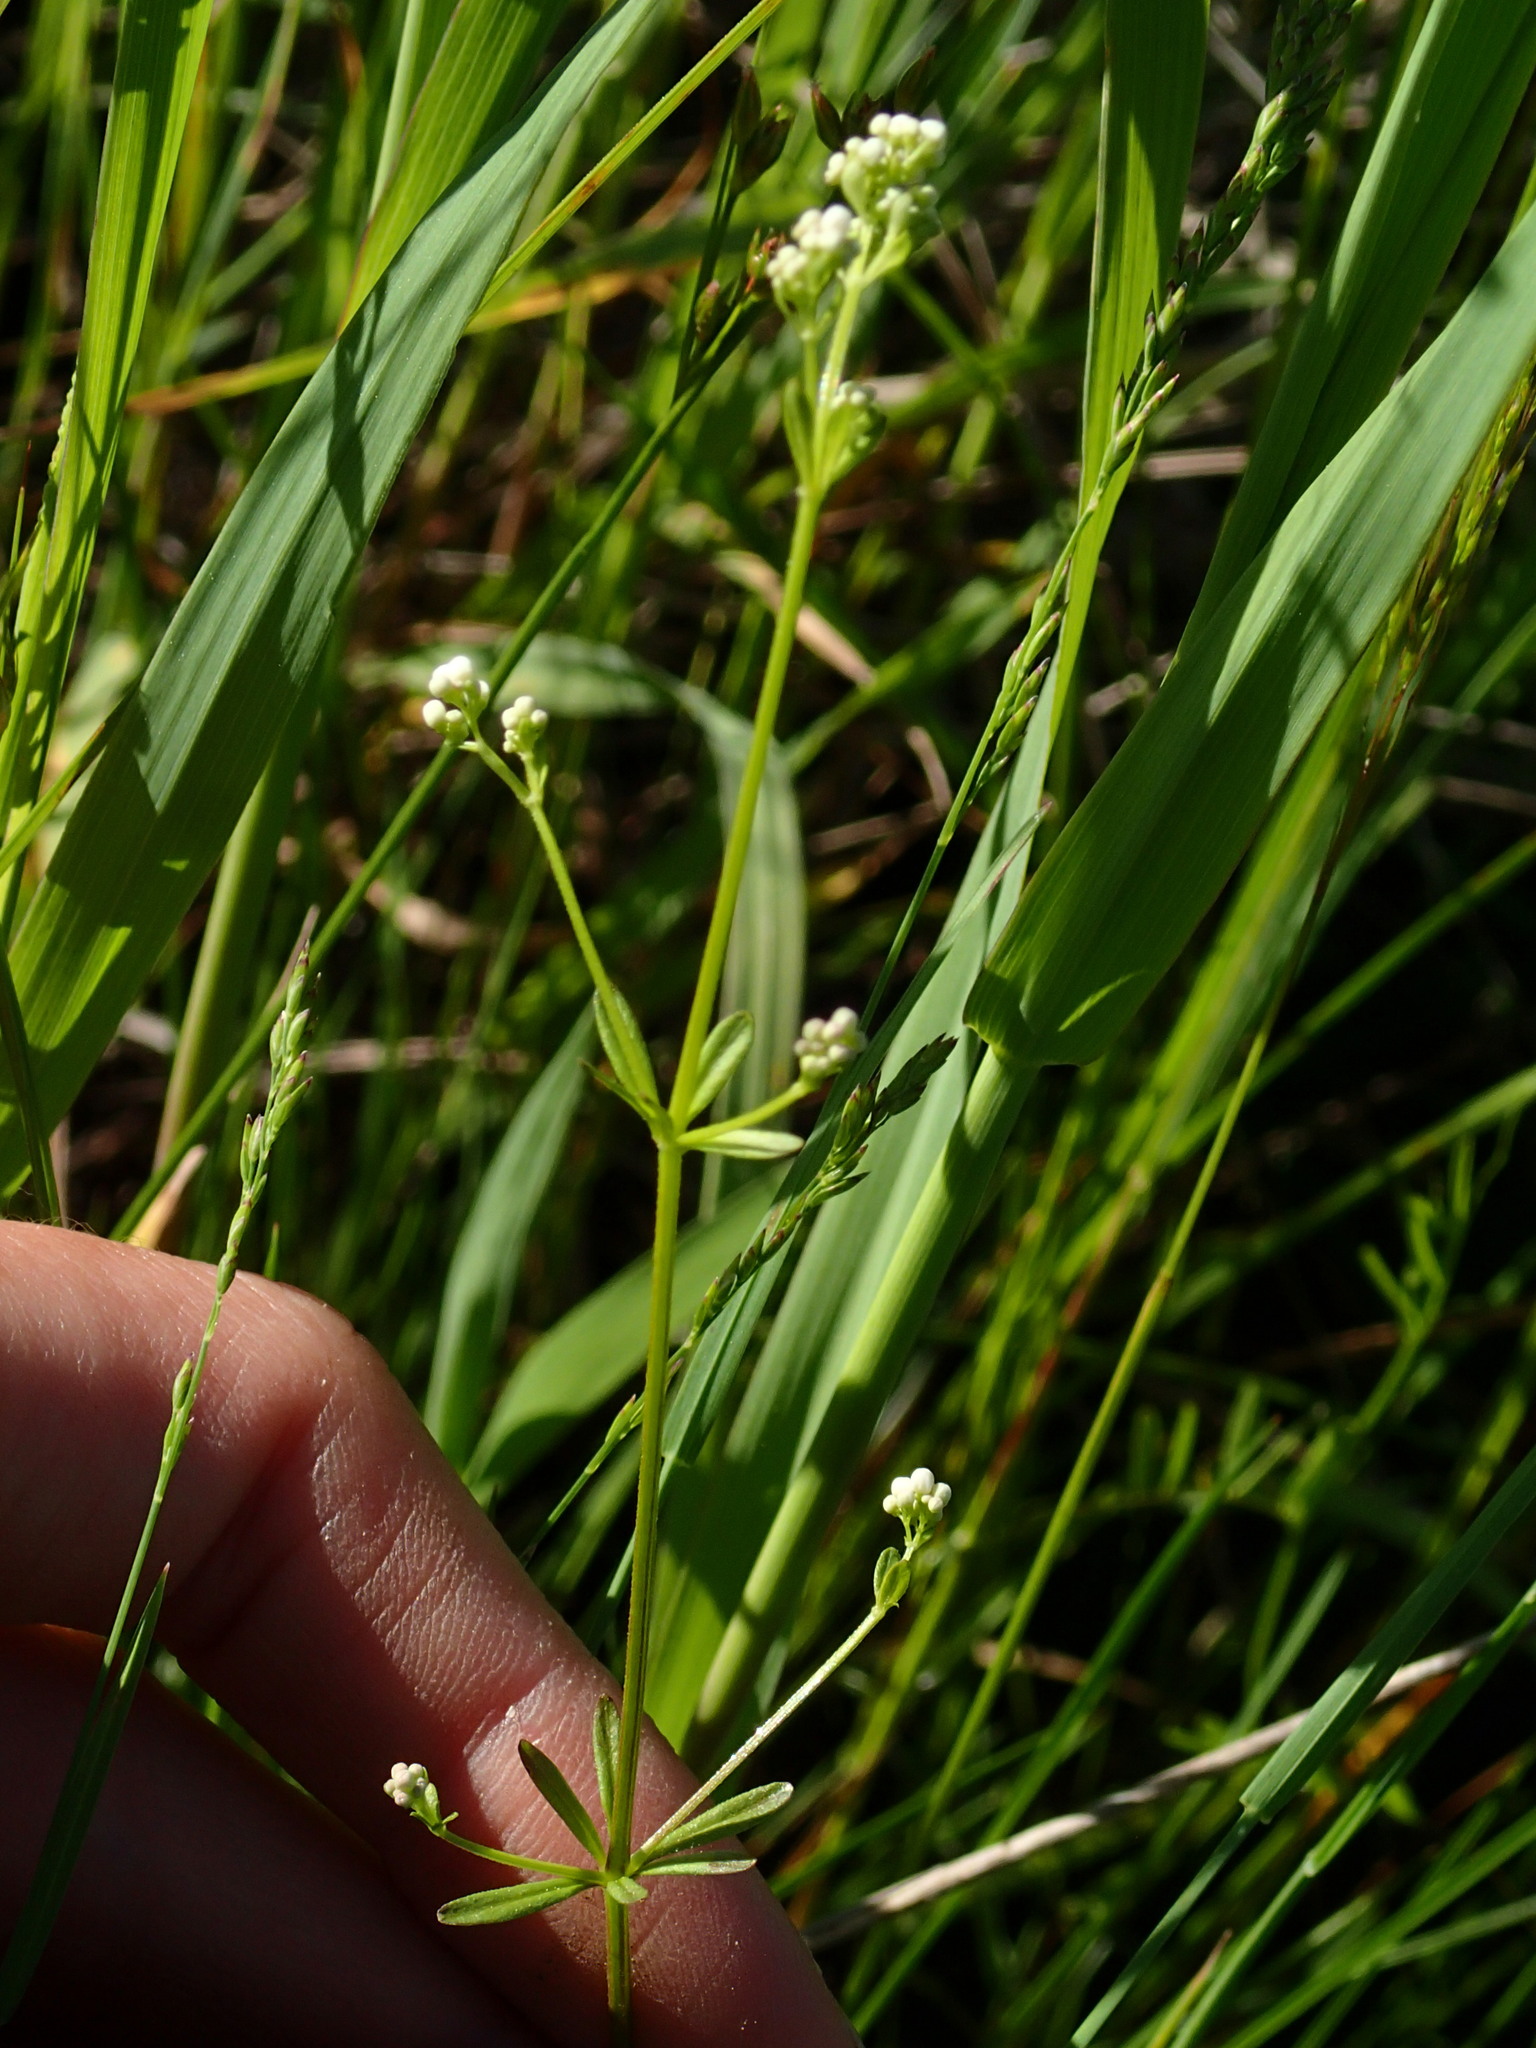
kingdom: Plantae
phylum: Tracheophyta
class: Magnoliopsida
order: Gentianales
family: Rubiaceae
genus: Galium
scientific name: Galium palustre
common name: Common marsh-bedstraw
